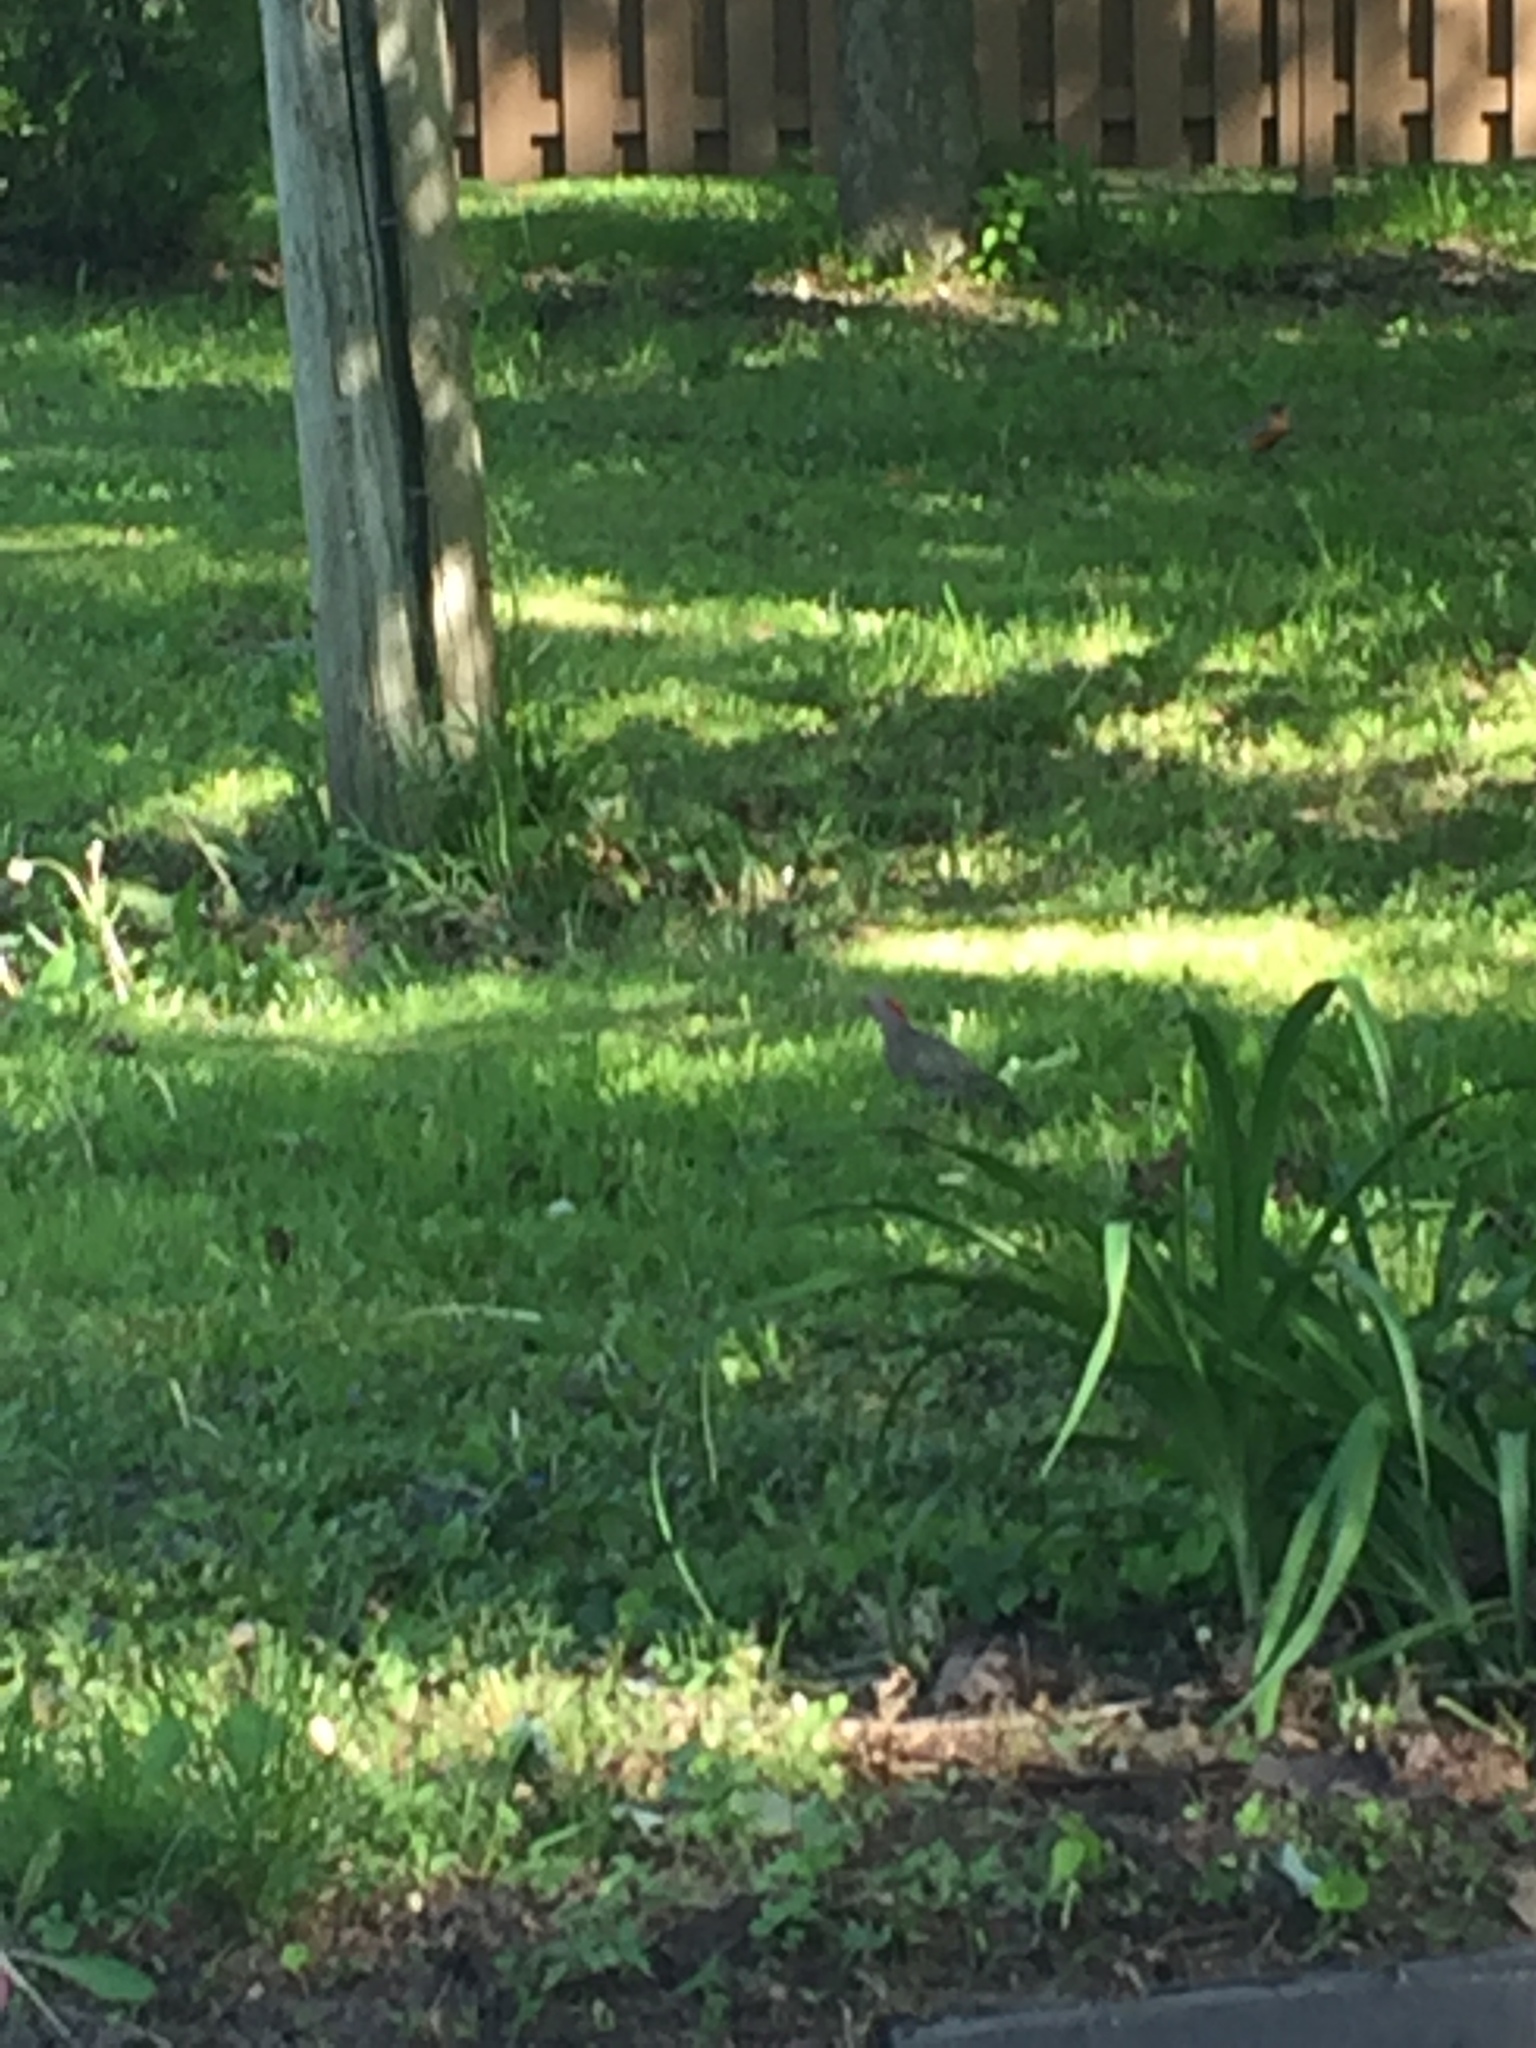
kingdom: Animalia
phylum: Chordata
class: Aves
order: Piciformes
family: Picidae
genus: Colaptes
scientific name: Colaptes auratus
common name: Northern flicker
